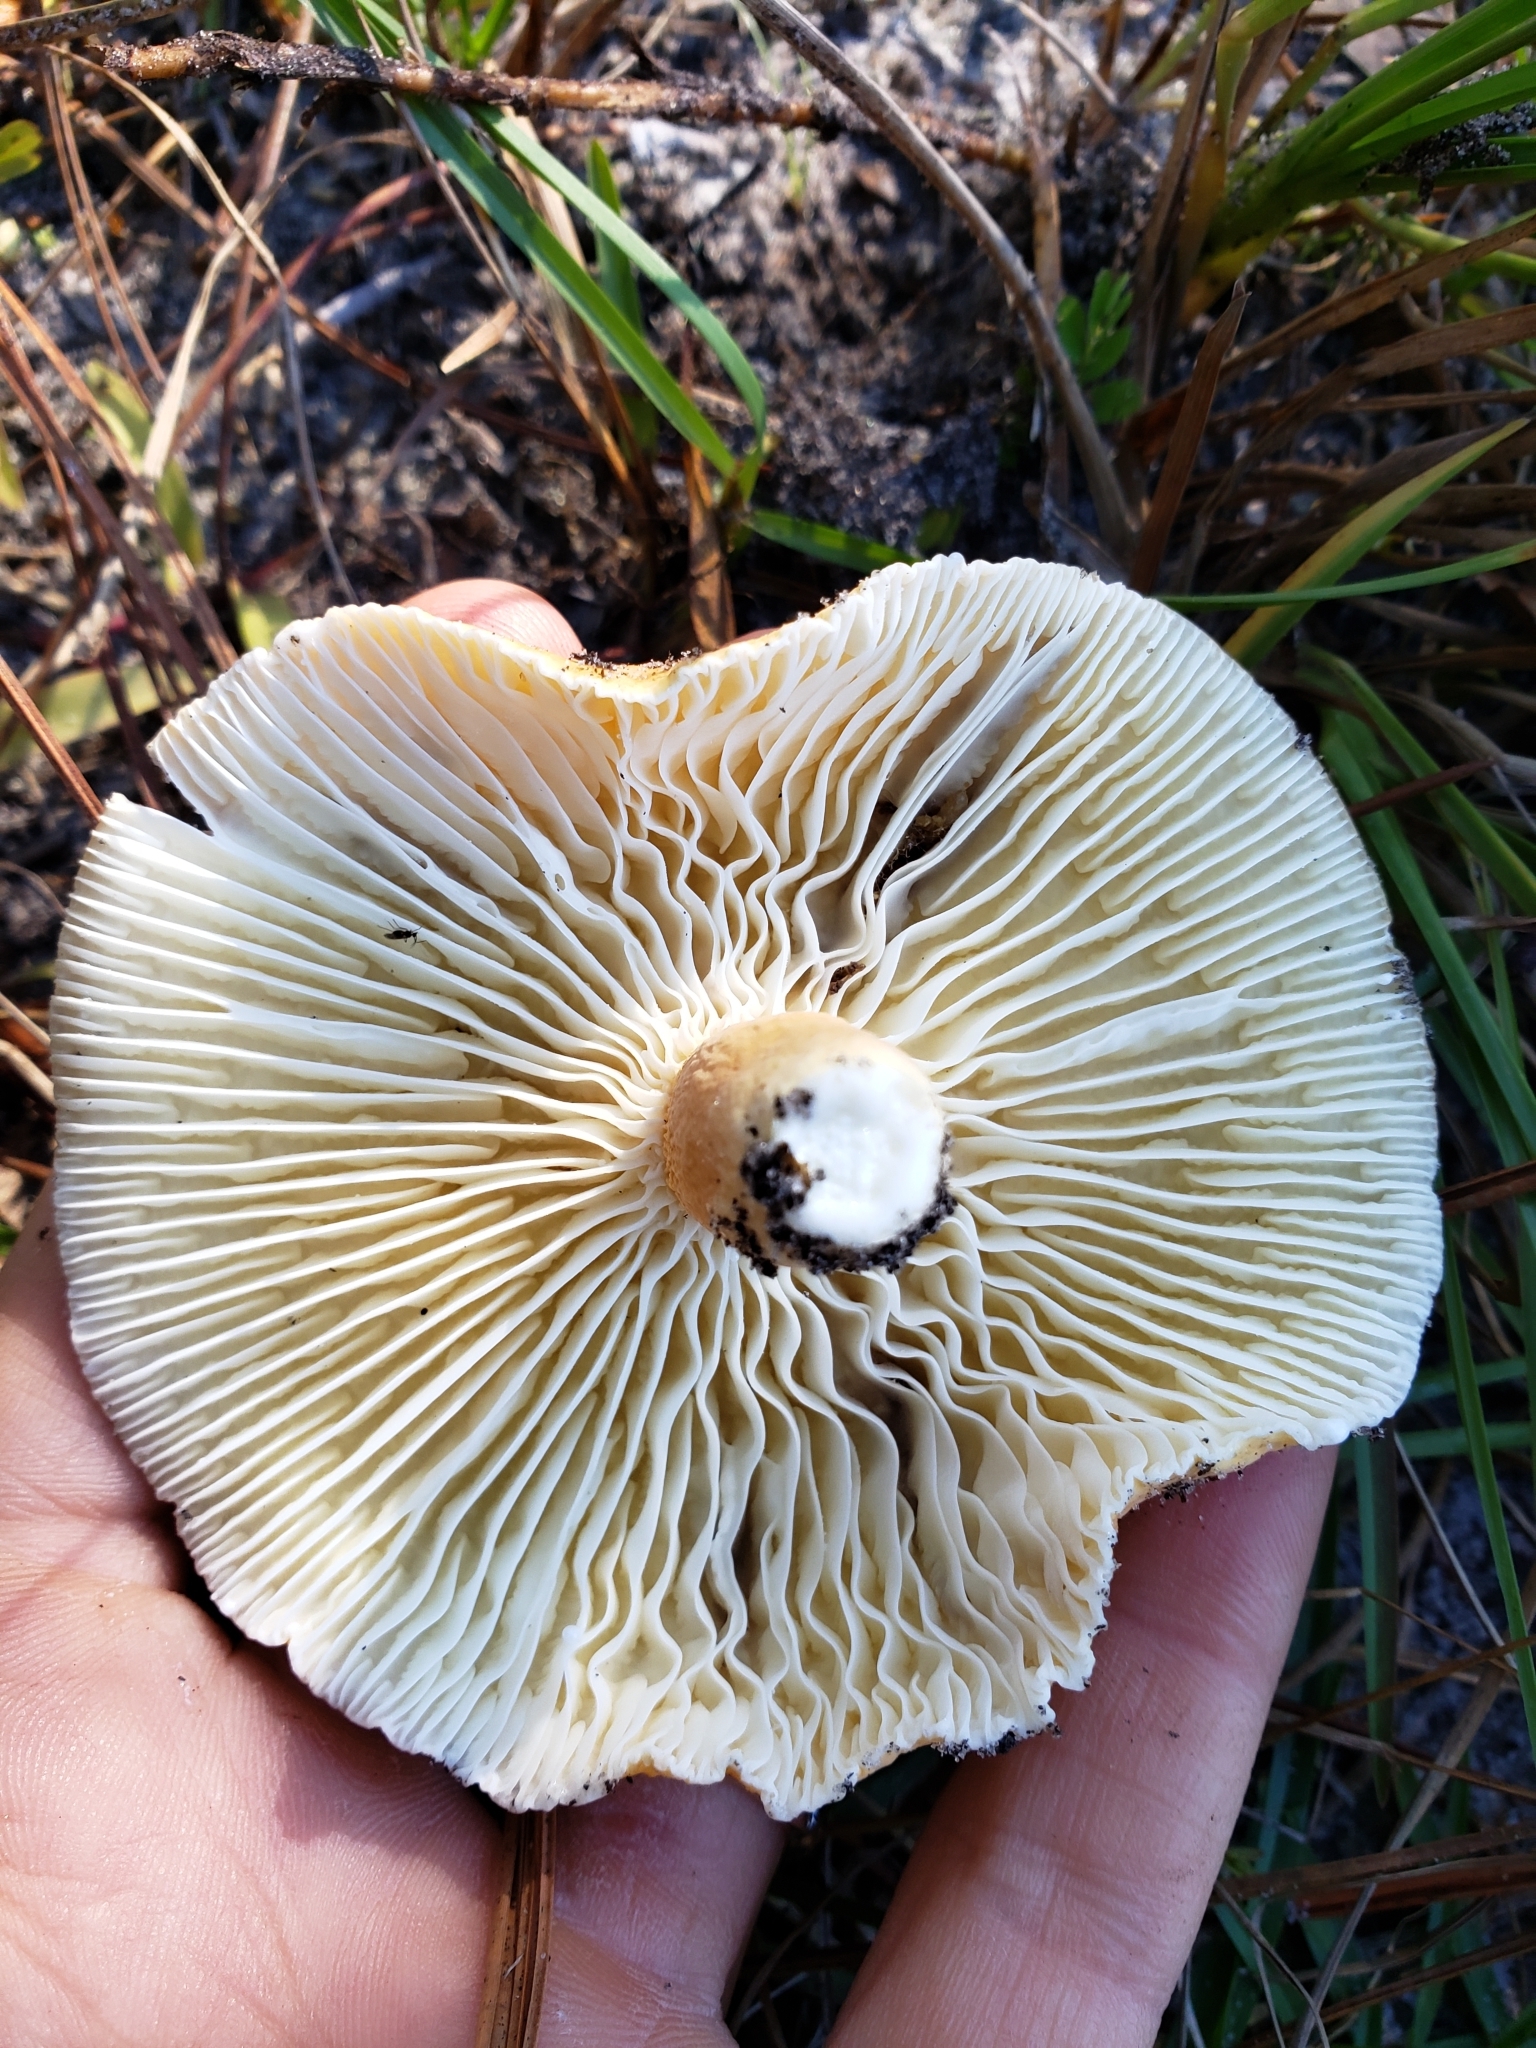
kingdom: Fungi
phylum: Basidiomycota
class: Agaricomycetes
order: Russulales
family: Russulaceae
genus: Lactarius
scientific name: Lactarius hygrophoroides
